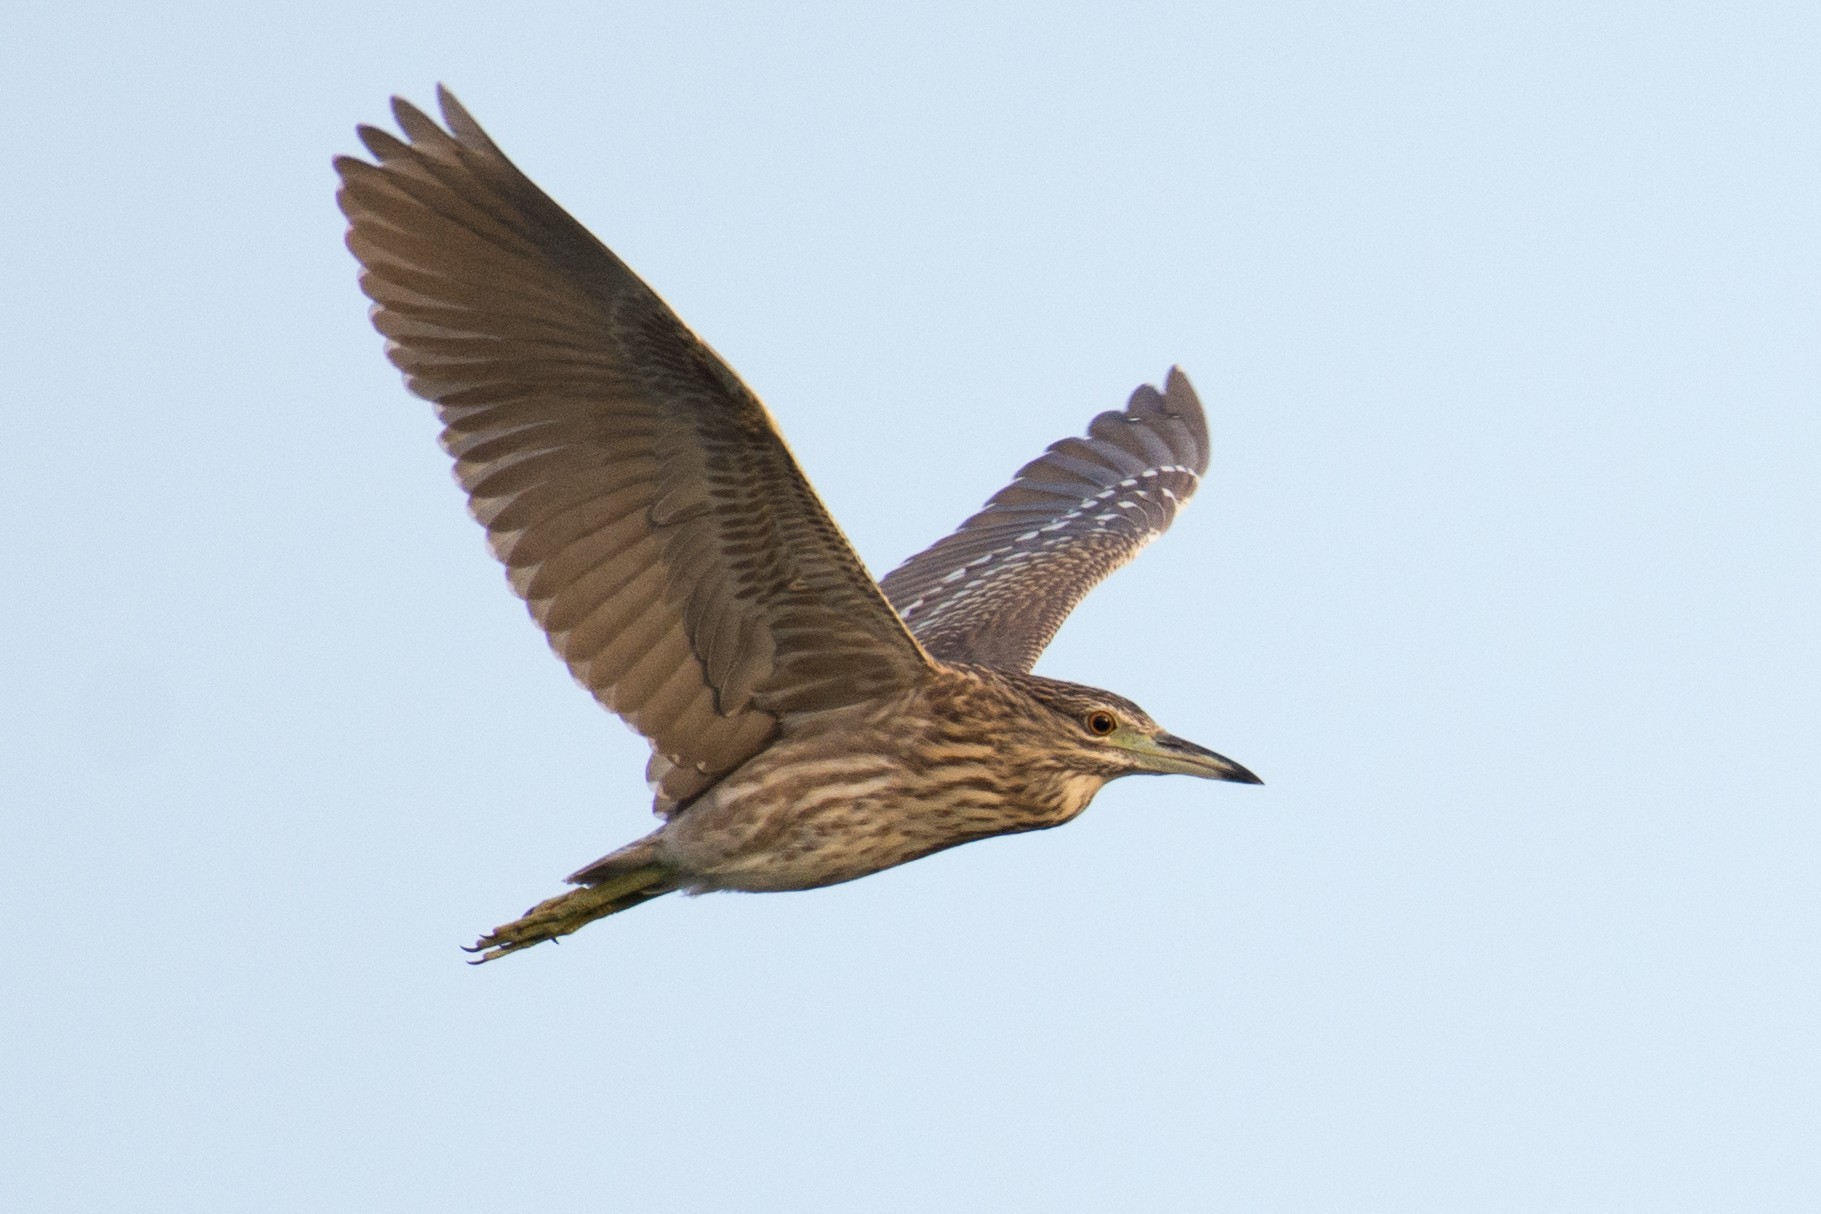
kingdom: Animalia
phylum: Chordata
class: Aves
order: Pelecaniformes
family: Ardeidae
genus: Nycticorax
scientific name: Nycticorax nycticorax
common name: Black-crowned night heron
